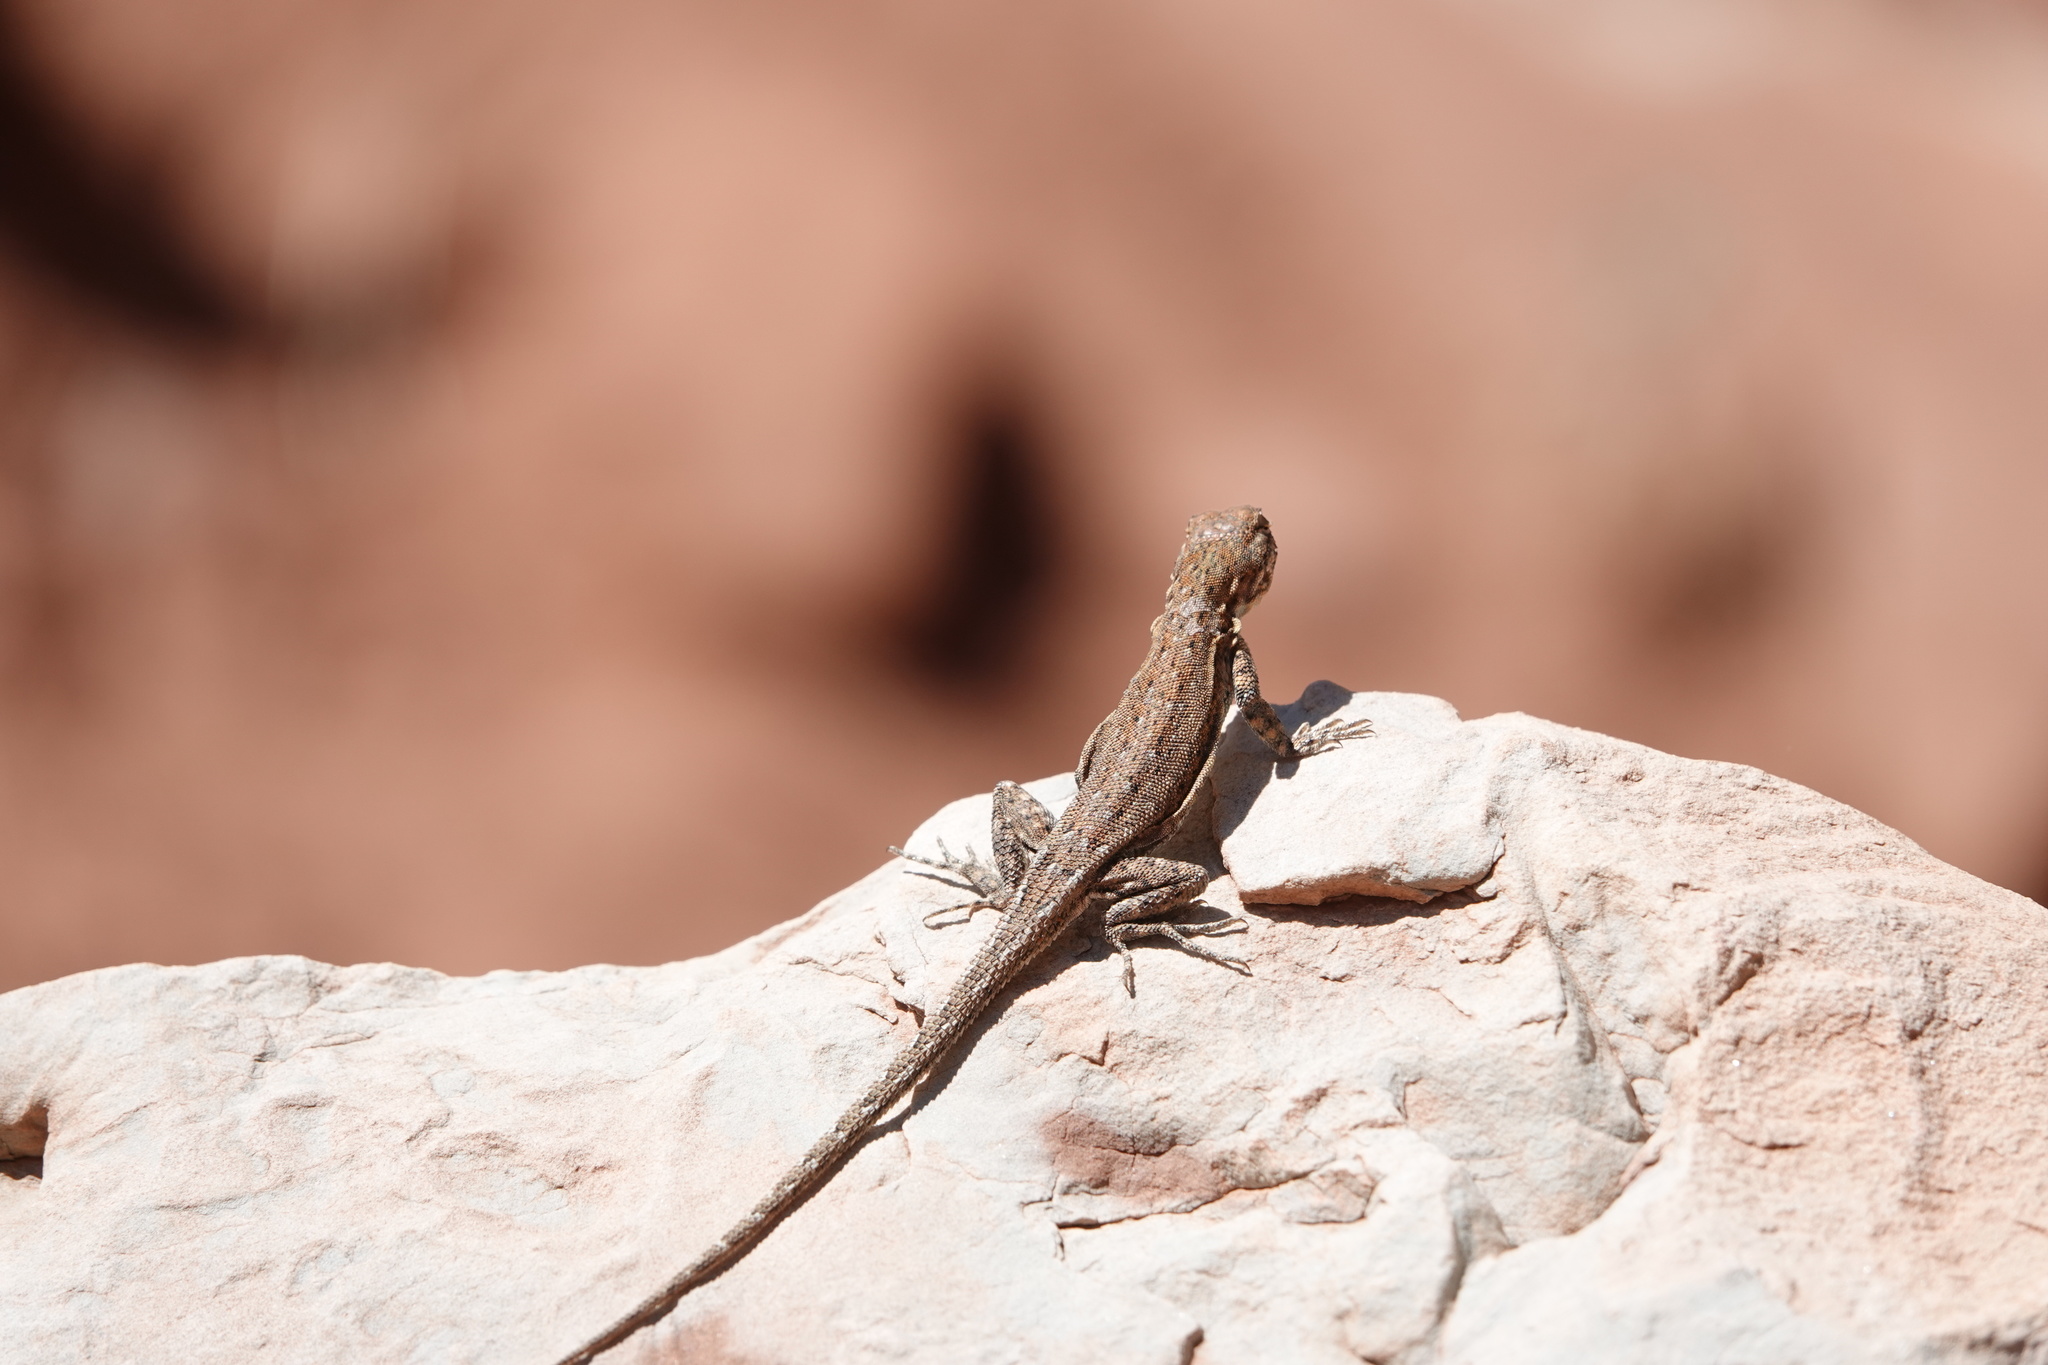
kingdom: Animalia
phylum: Chordata
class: Squamata
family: Phrynosomatidae
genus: Uta
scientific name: Uta stansburiana
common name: Side-blotched lizard
